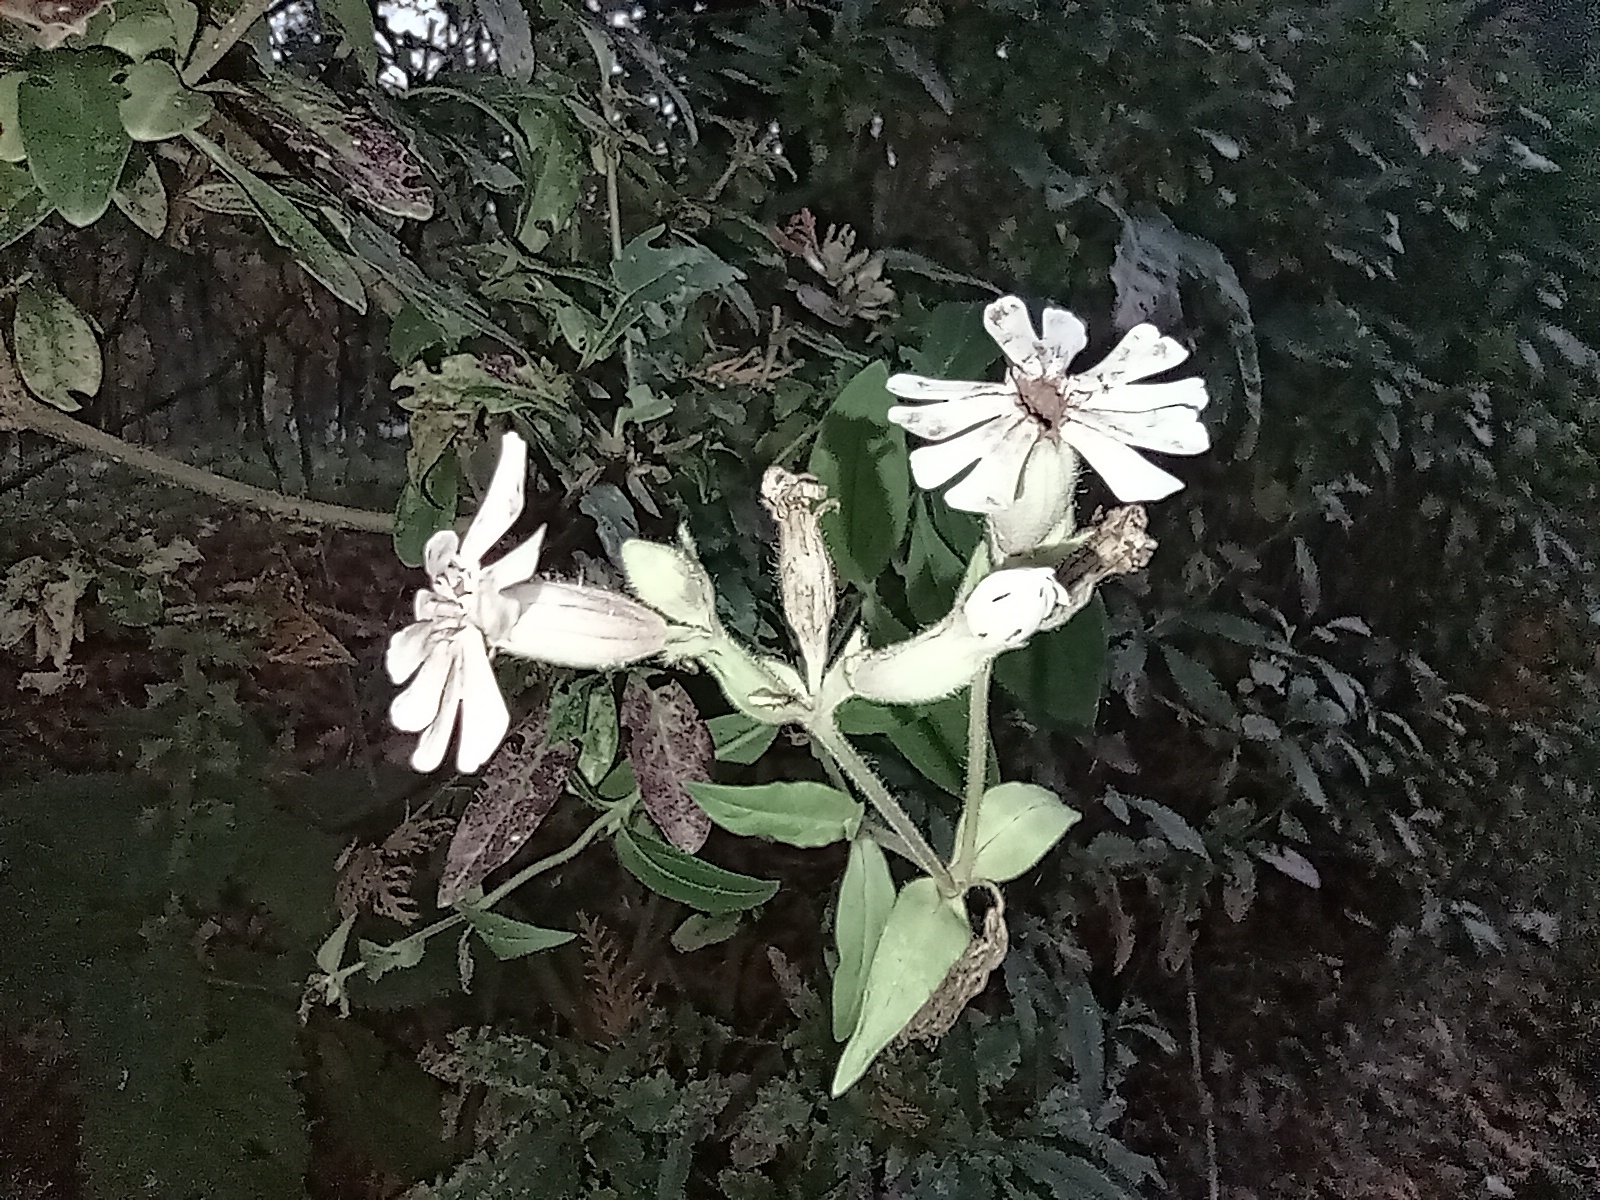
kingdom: Plantae
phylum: Tracheophyta
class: Magnoliopsida
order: Caryophyllales
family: Caryophyllaceae
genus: Silene
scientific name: Silene latifolia
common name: White campion
